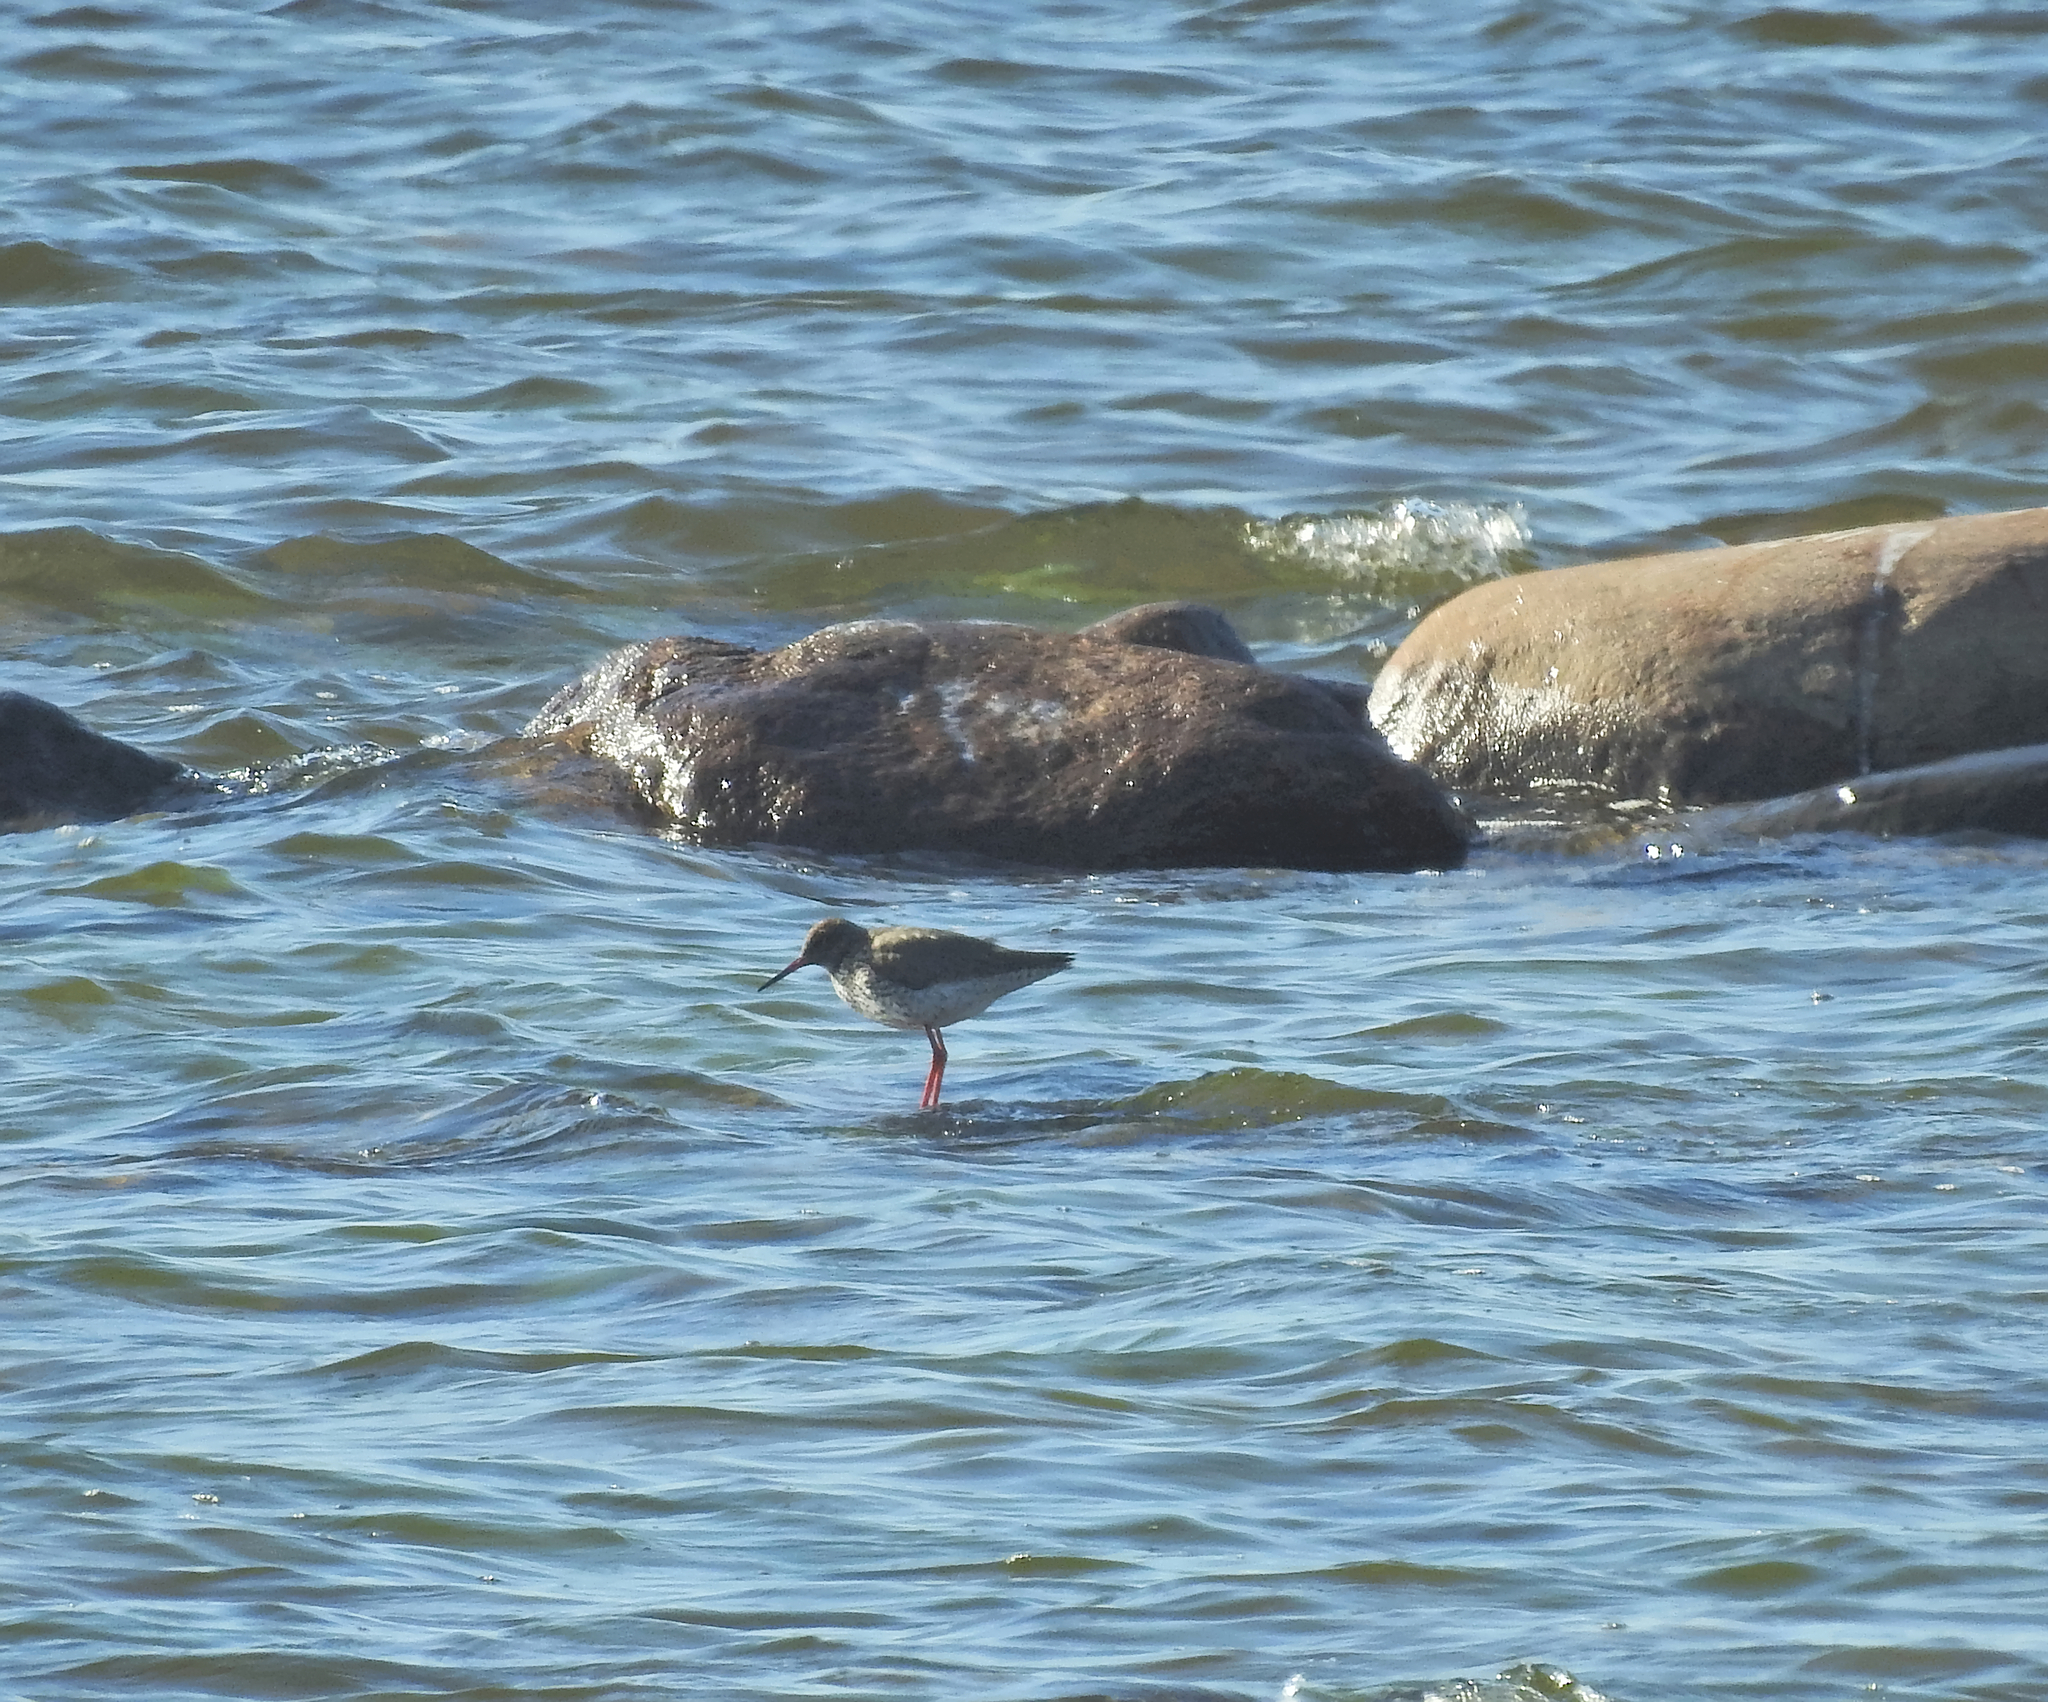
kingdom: Animalia
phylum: Chordata
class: Aves
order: Charadriiformes
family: Scolopacidae
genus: Tringa
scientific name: Tringa totanus
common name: Common redshank
